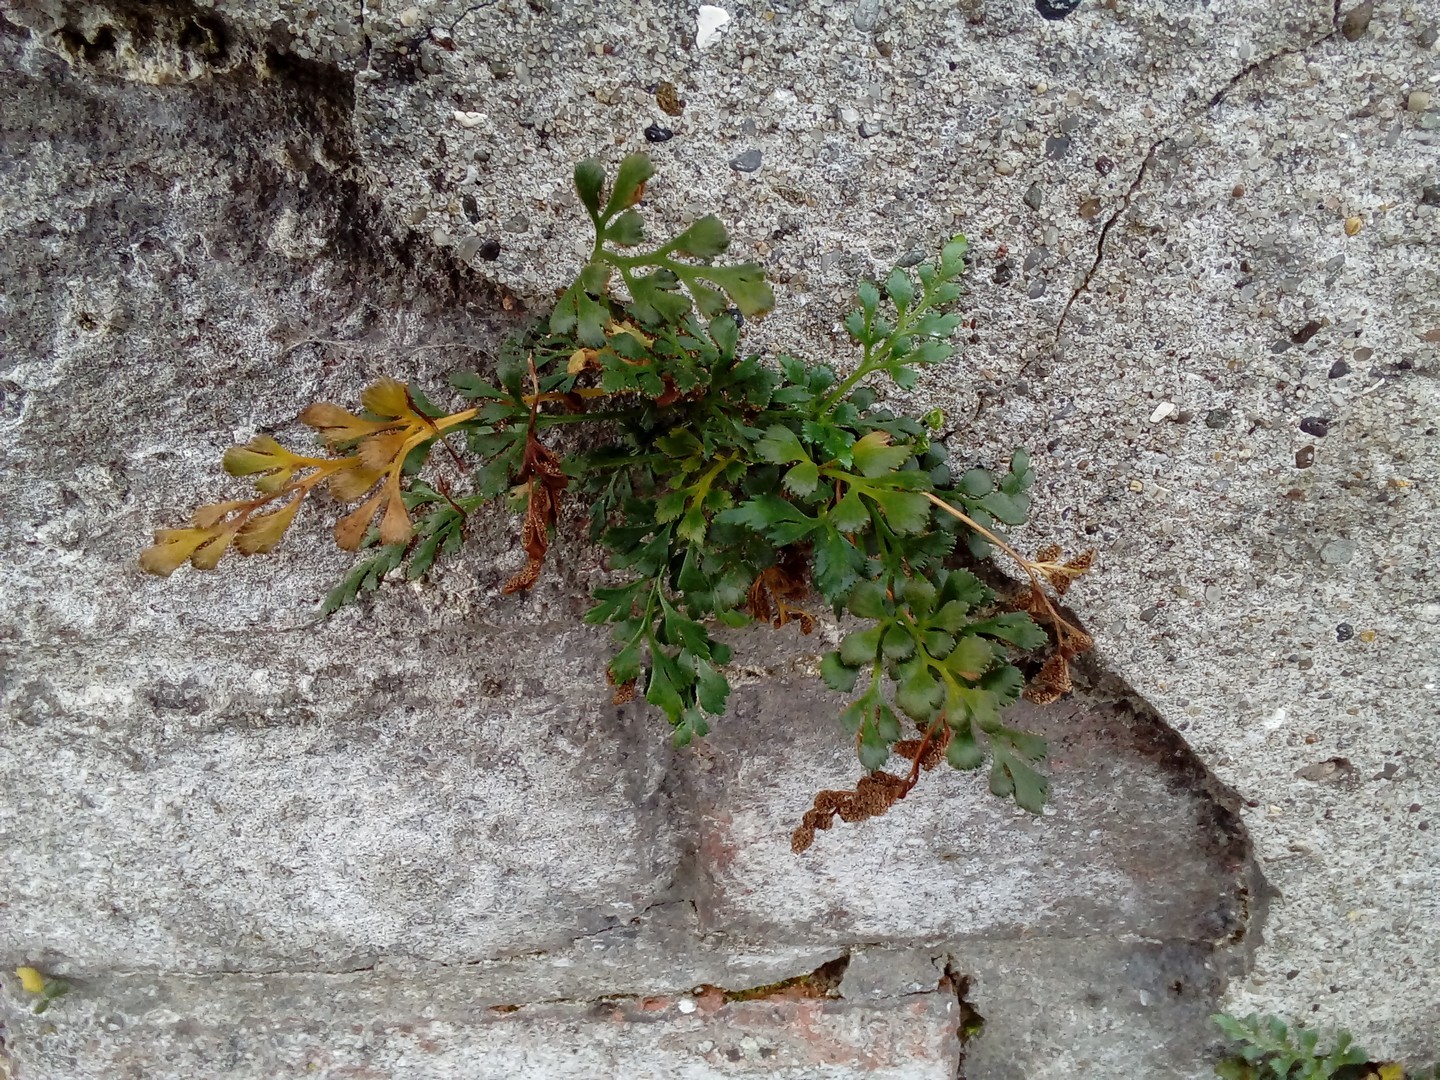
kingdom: Plantae
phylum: Tracheophyta
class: Polypodiopsida
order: Polypodiales
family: Aspleniaceae
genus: Asplenium
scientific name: Asplenium ruta-muraria
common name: Wall-rue
